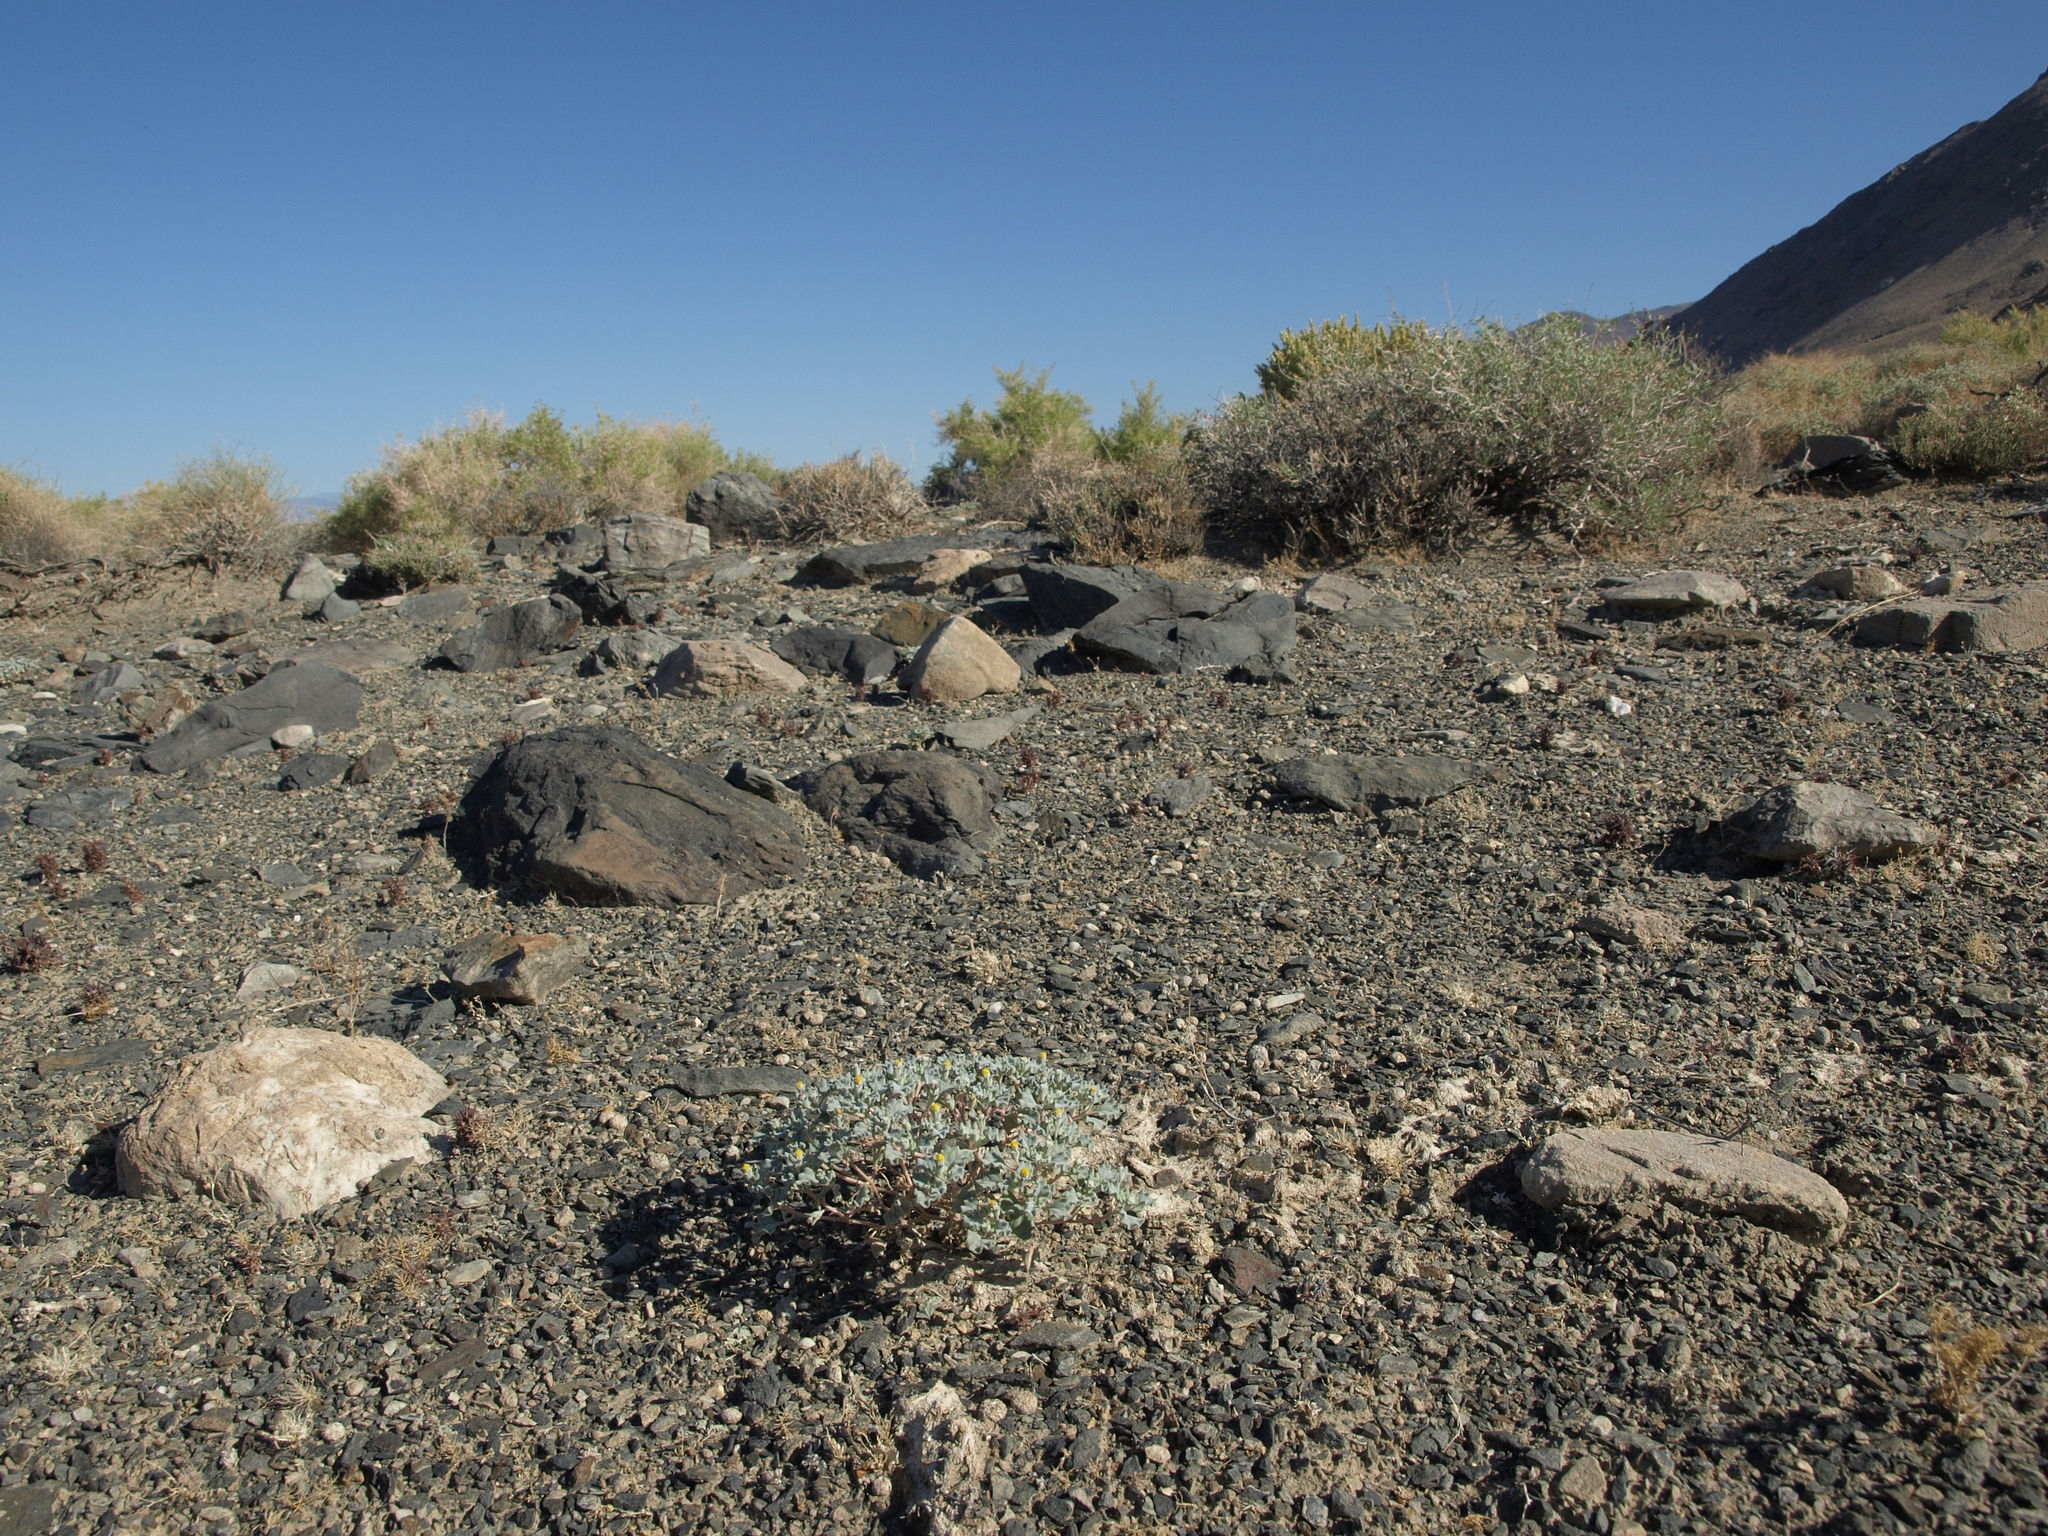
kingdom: Plantae
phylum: Tracheophyta
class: Magnoliopsida
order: Asterales
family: Asteraceae
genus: Psathyrotes
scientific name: Psathyrotes annua
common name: Mealy rosettes
